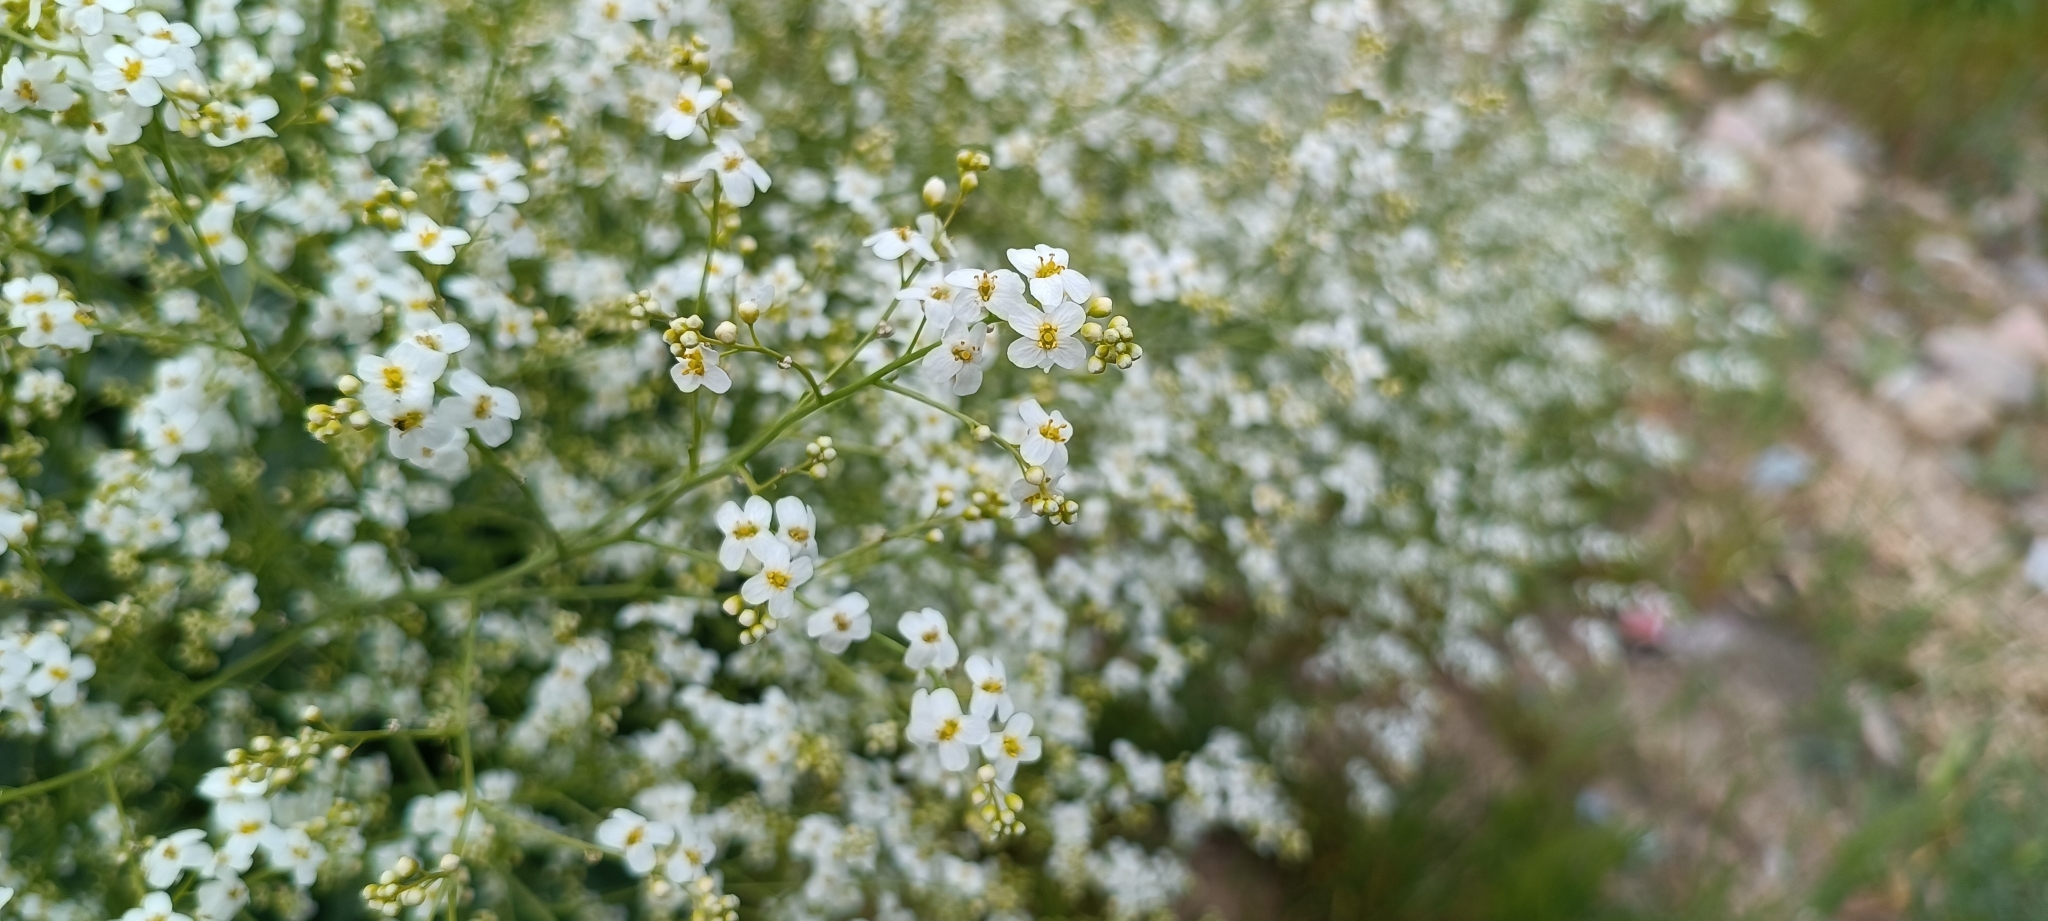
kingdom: Plantae
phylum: Tracheophyta
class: Magnoliopsida
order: Brassicales
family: Brassicaceae
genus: Crambe
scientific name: Crambe orientalis
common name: Oriental sea-kale
